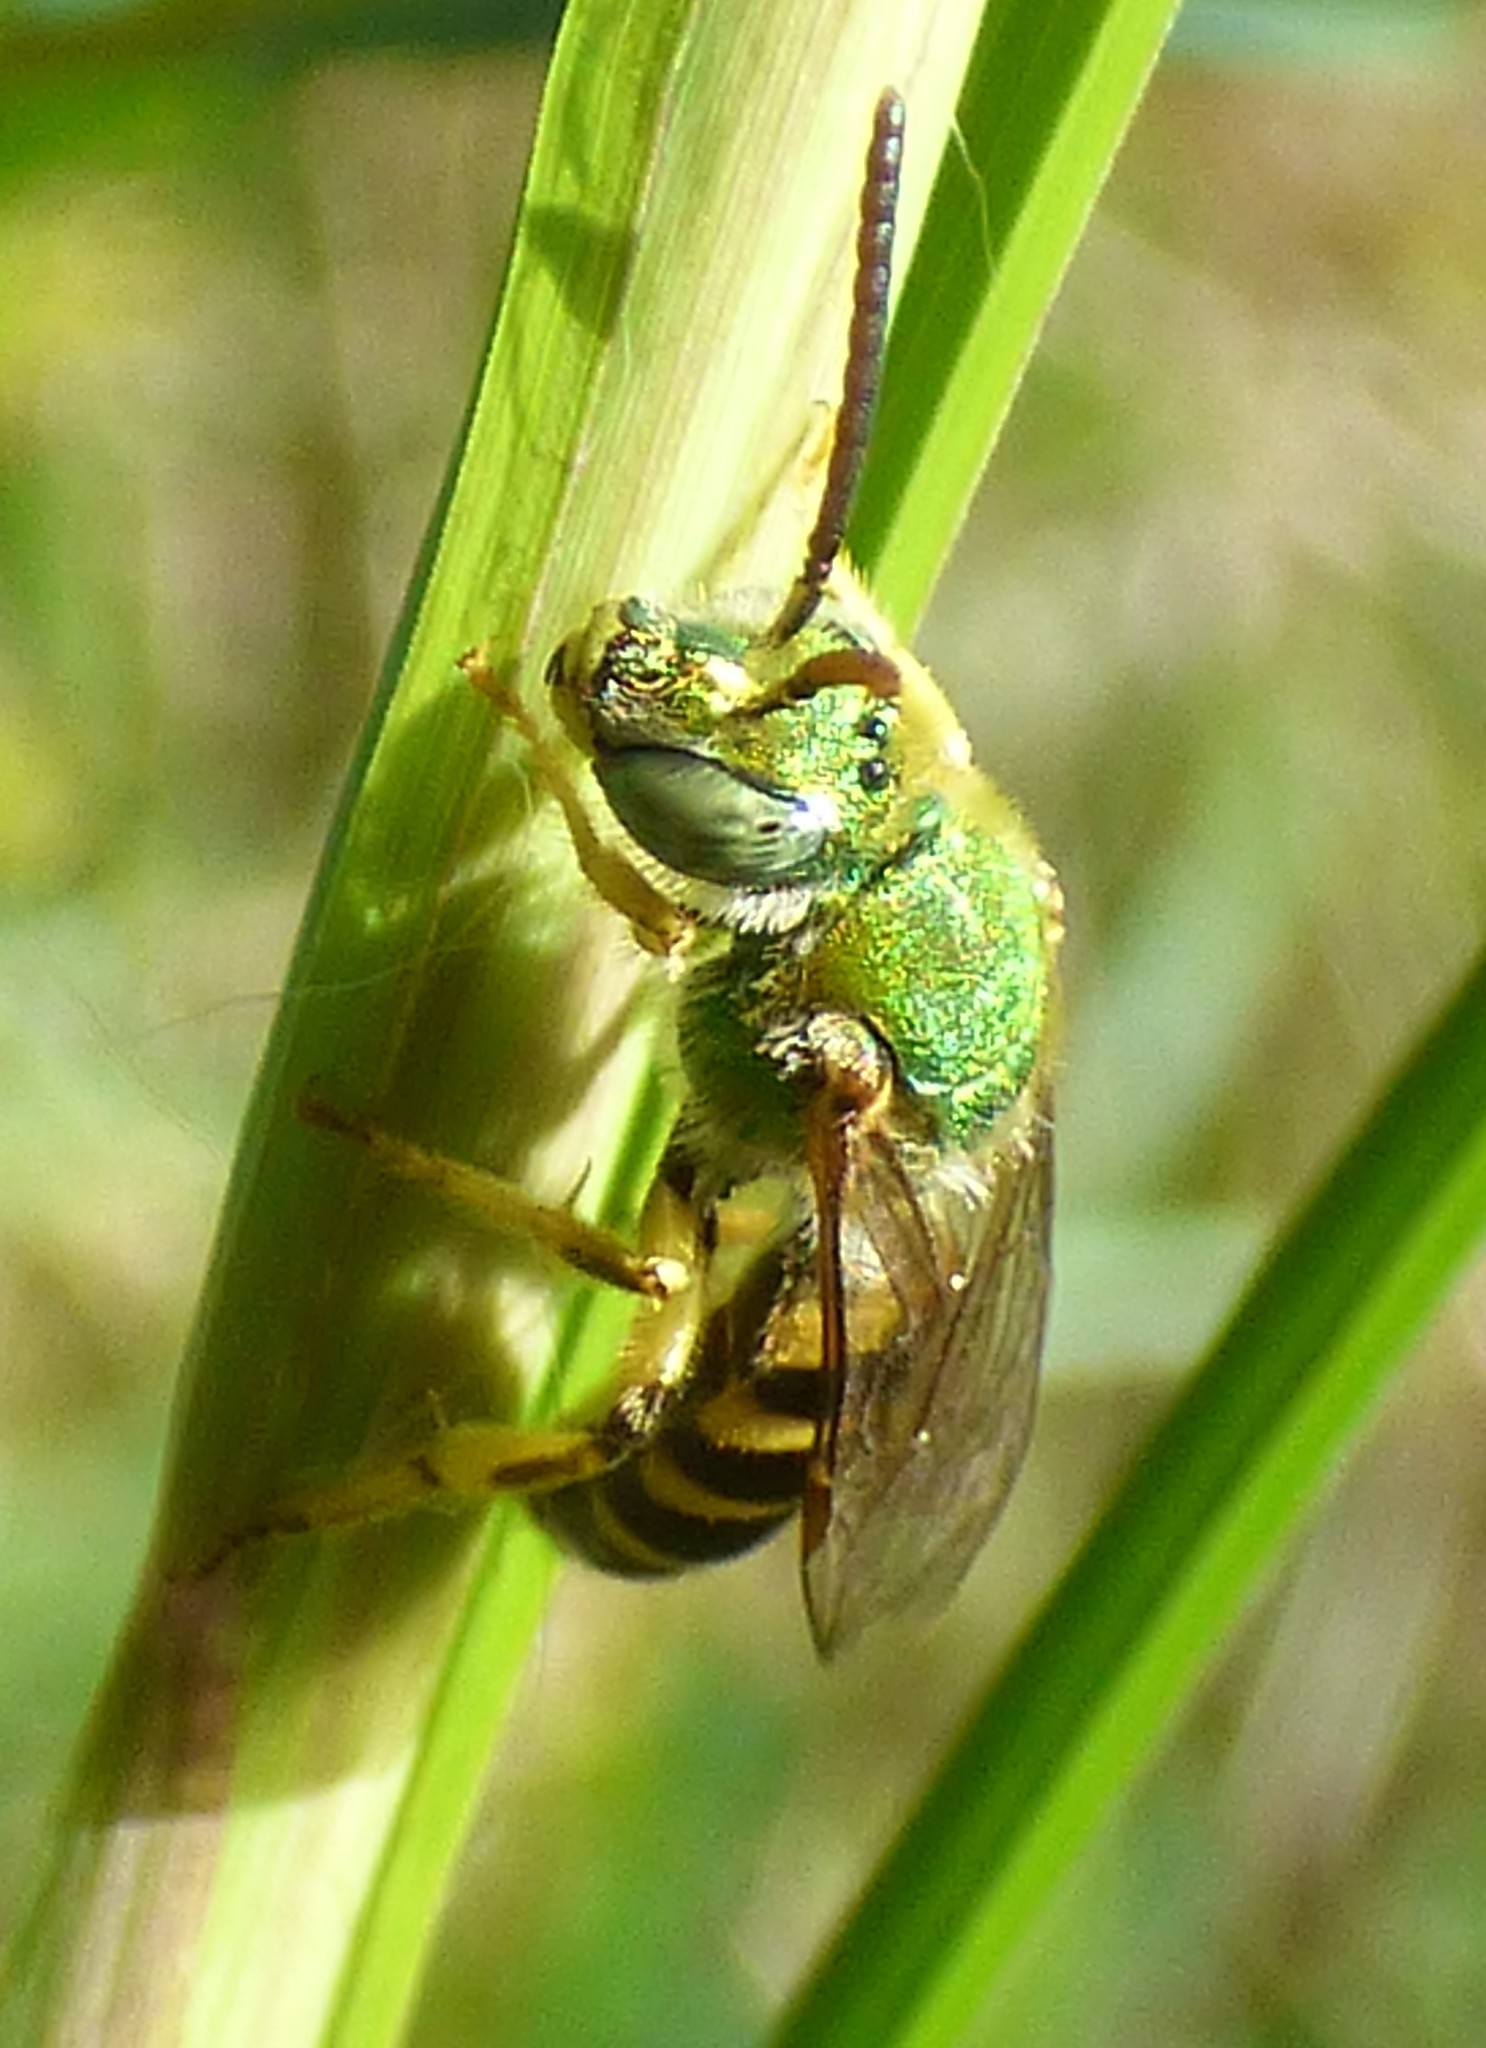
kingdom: Animalia
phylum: Arthropoda
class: Insecta
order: Hymenoptera
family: Halictidae
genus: Agapostemon
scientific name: Agapostemon virescens
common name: Bicolored striped sweat bee
